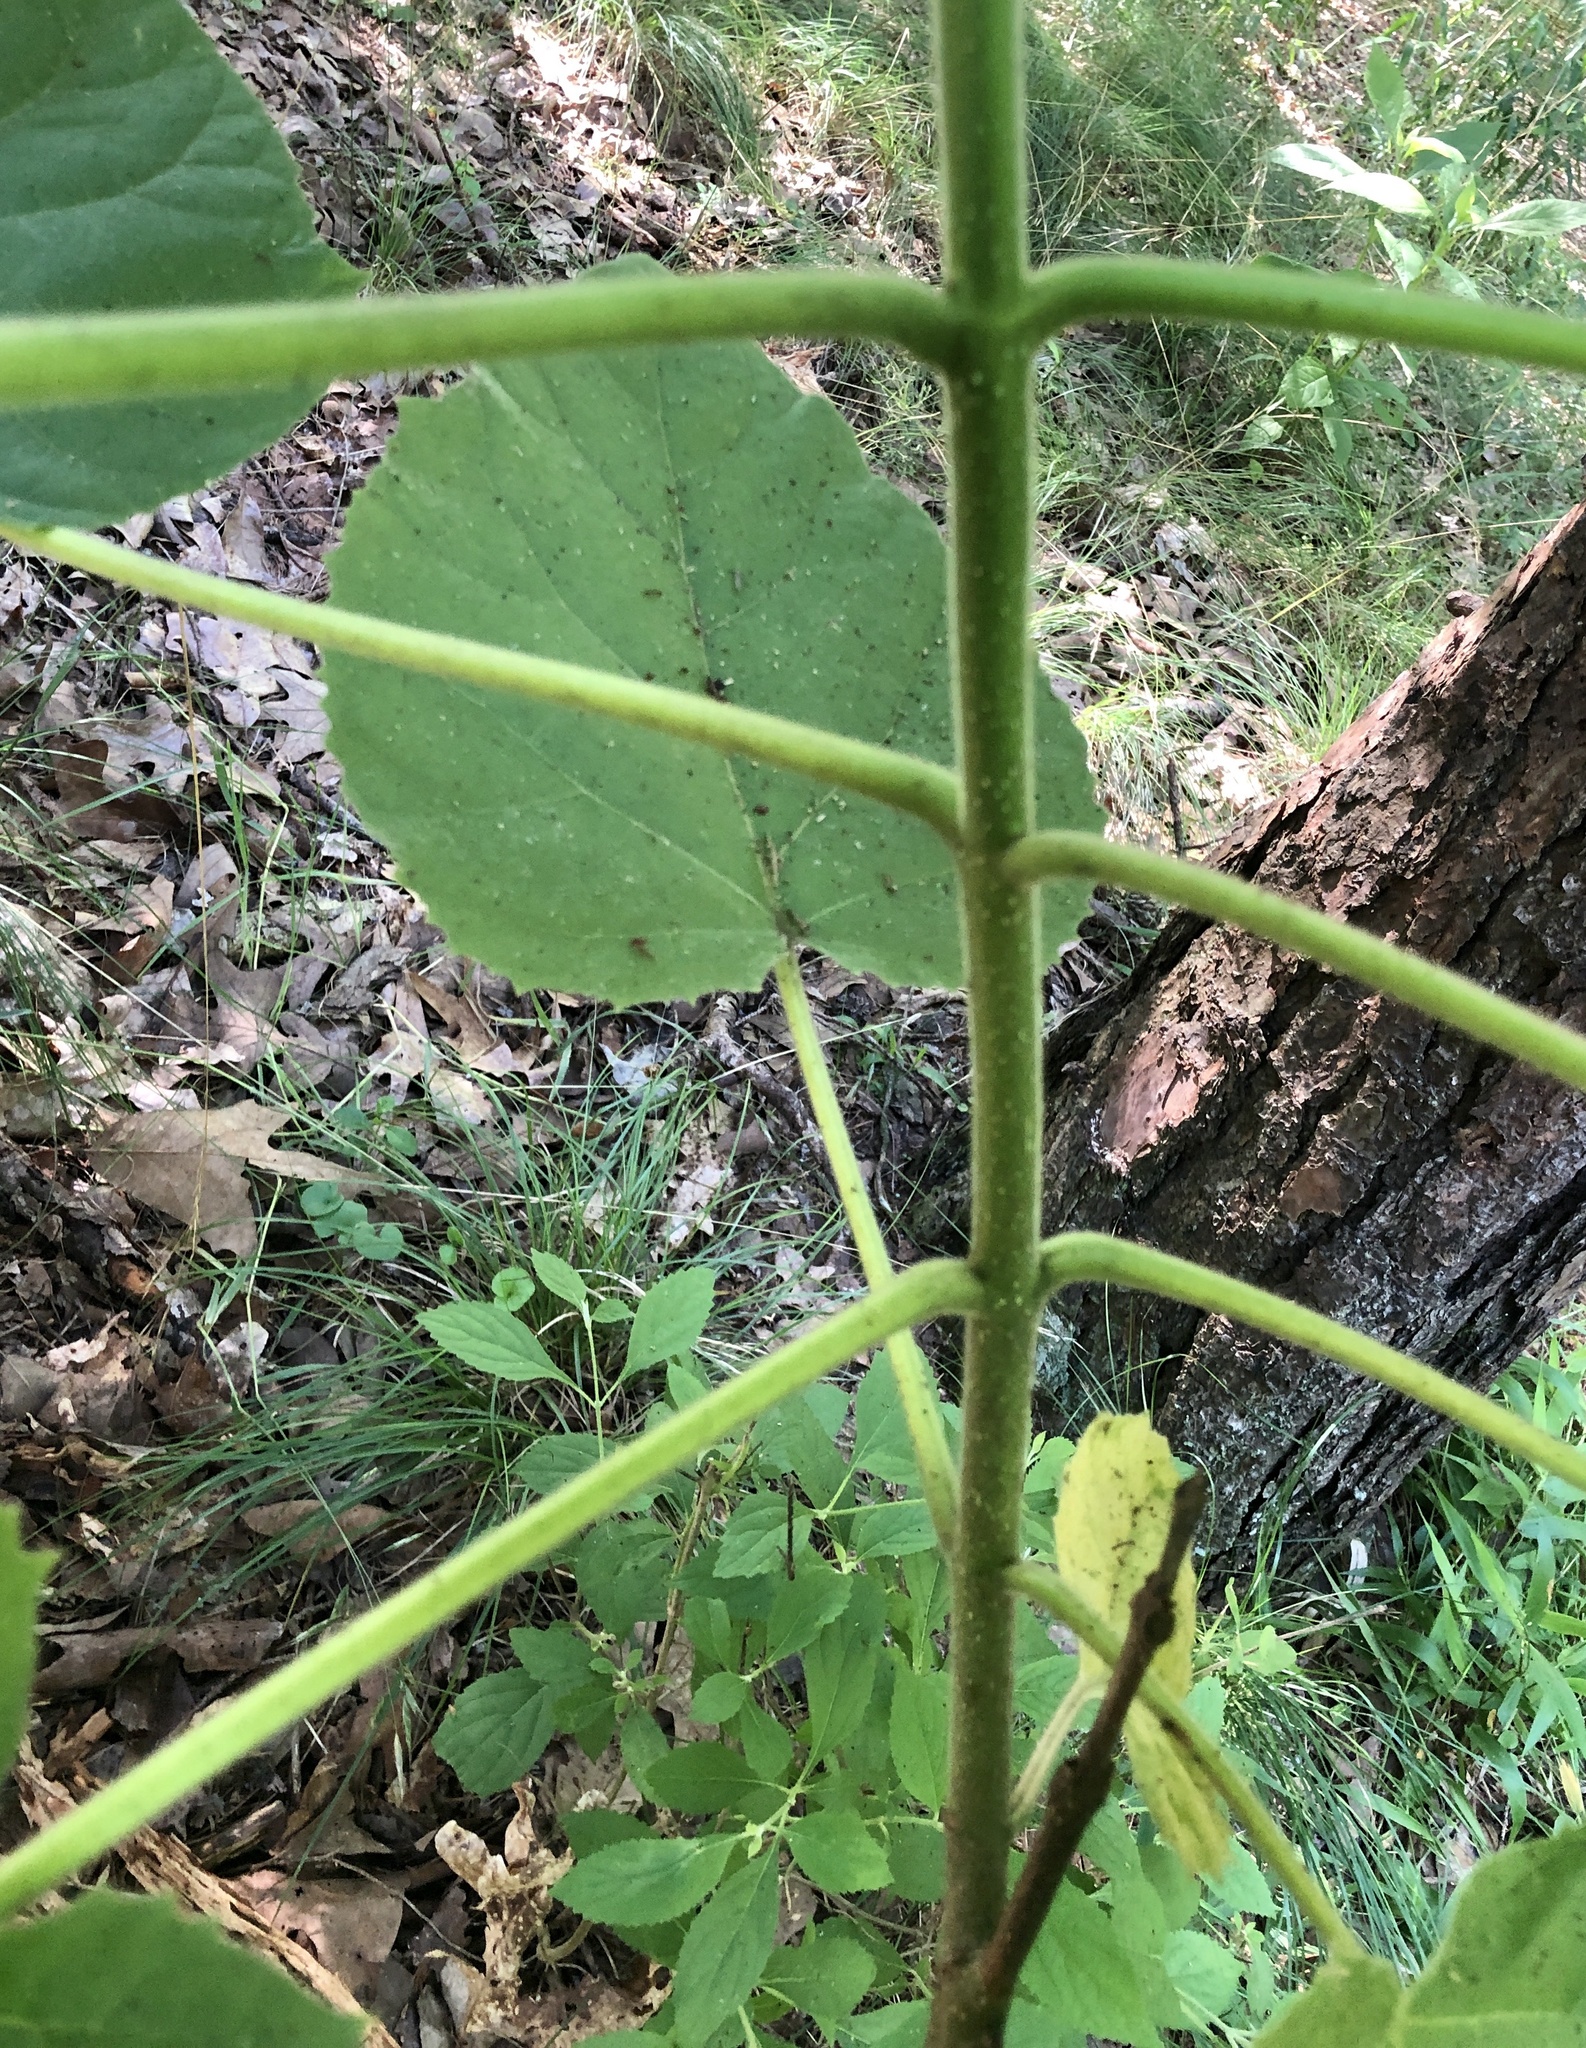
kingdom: Plantae
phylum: Tracheophyta
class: Magnoliopsida
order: Lamiales
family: Paulowniaceae
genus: Paulownia
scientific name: Paulownia tomentosa
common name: Foxglove-tree
